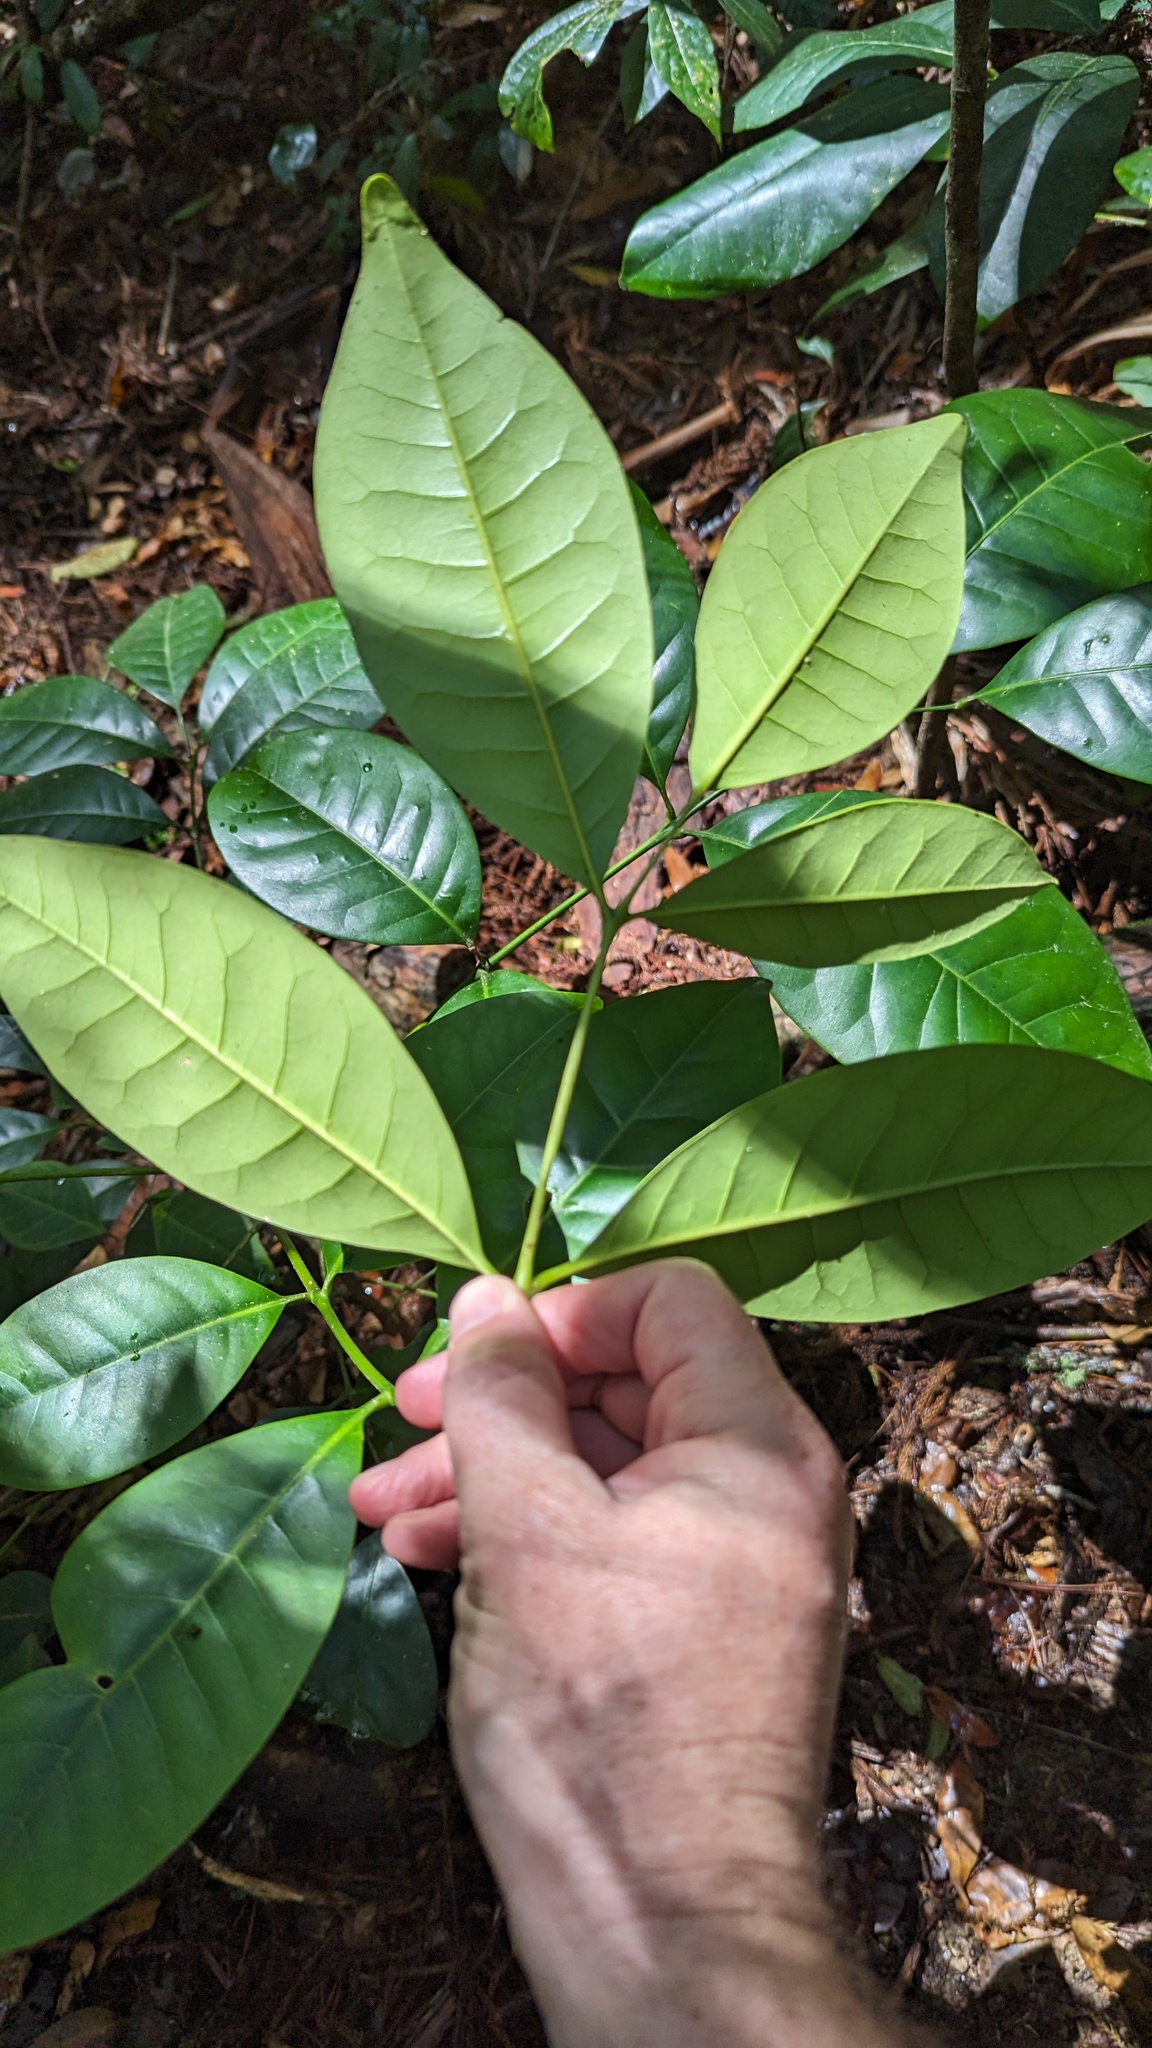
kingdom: Plantae
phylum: Tracheophyta
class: Magnoliopsida
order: Sapindales
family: Meliaceae
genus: Synoum
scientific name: Synoum glandulosum
